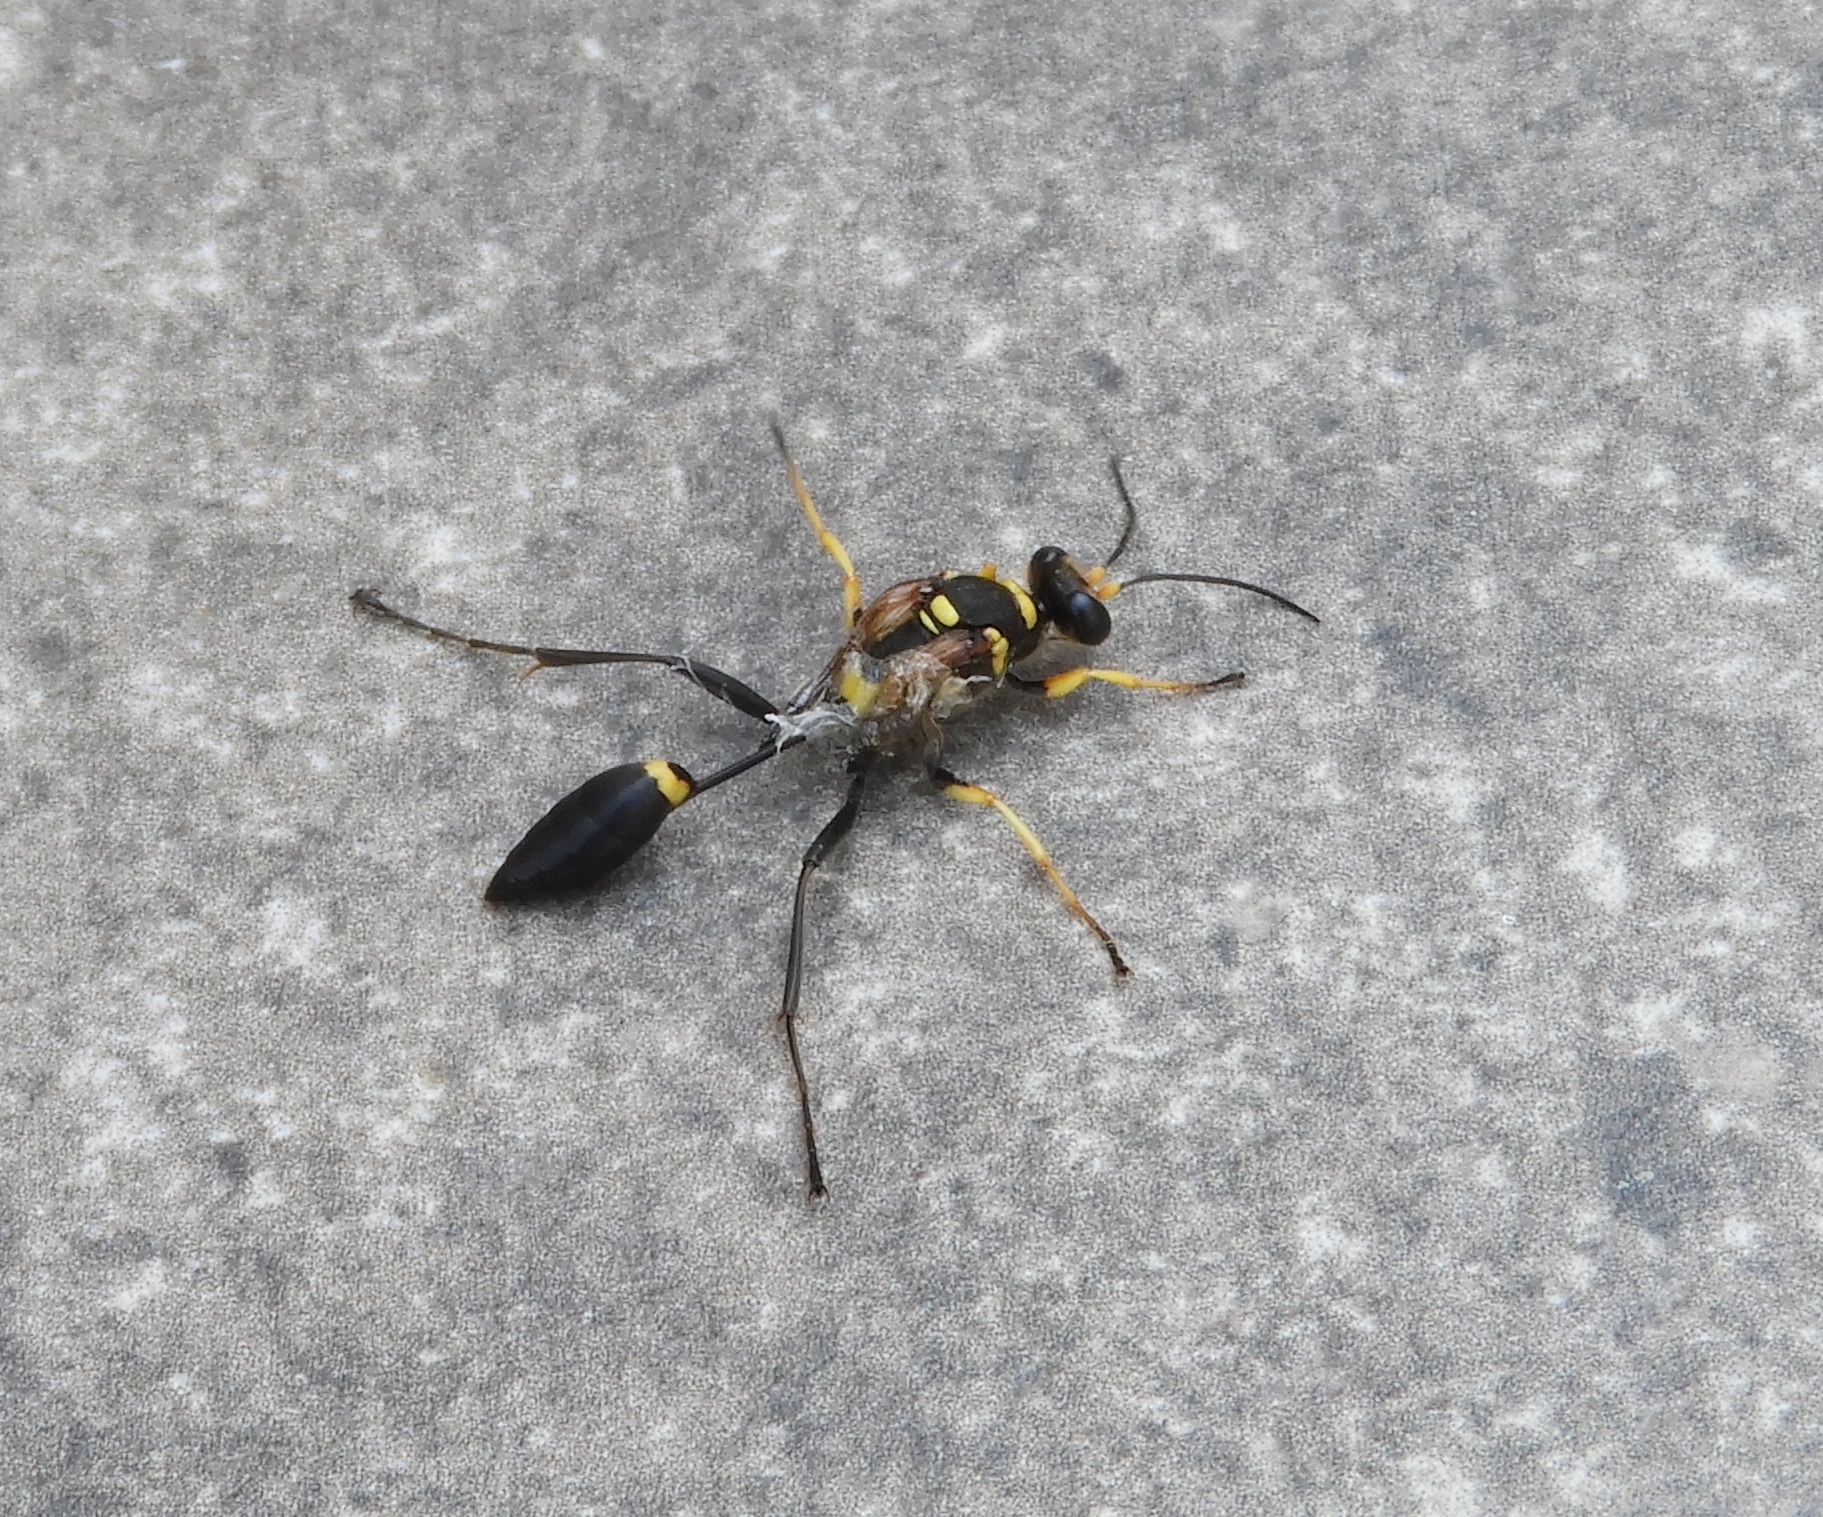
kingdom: Animalia
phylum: Arthropoda
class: Insecta
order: Hymenoptera
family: Sphecidae
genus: Sceliphron
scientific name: Sceliphron assimile
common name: Clayman's mud dauber
